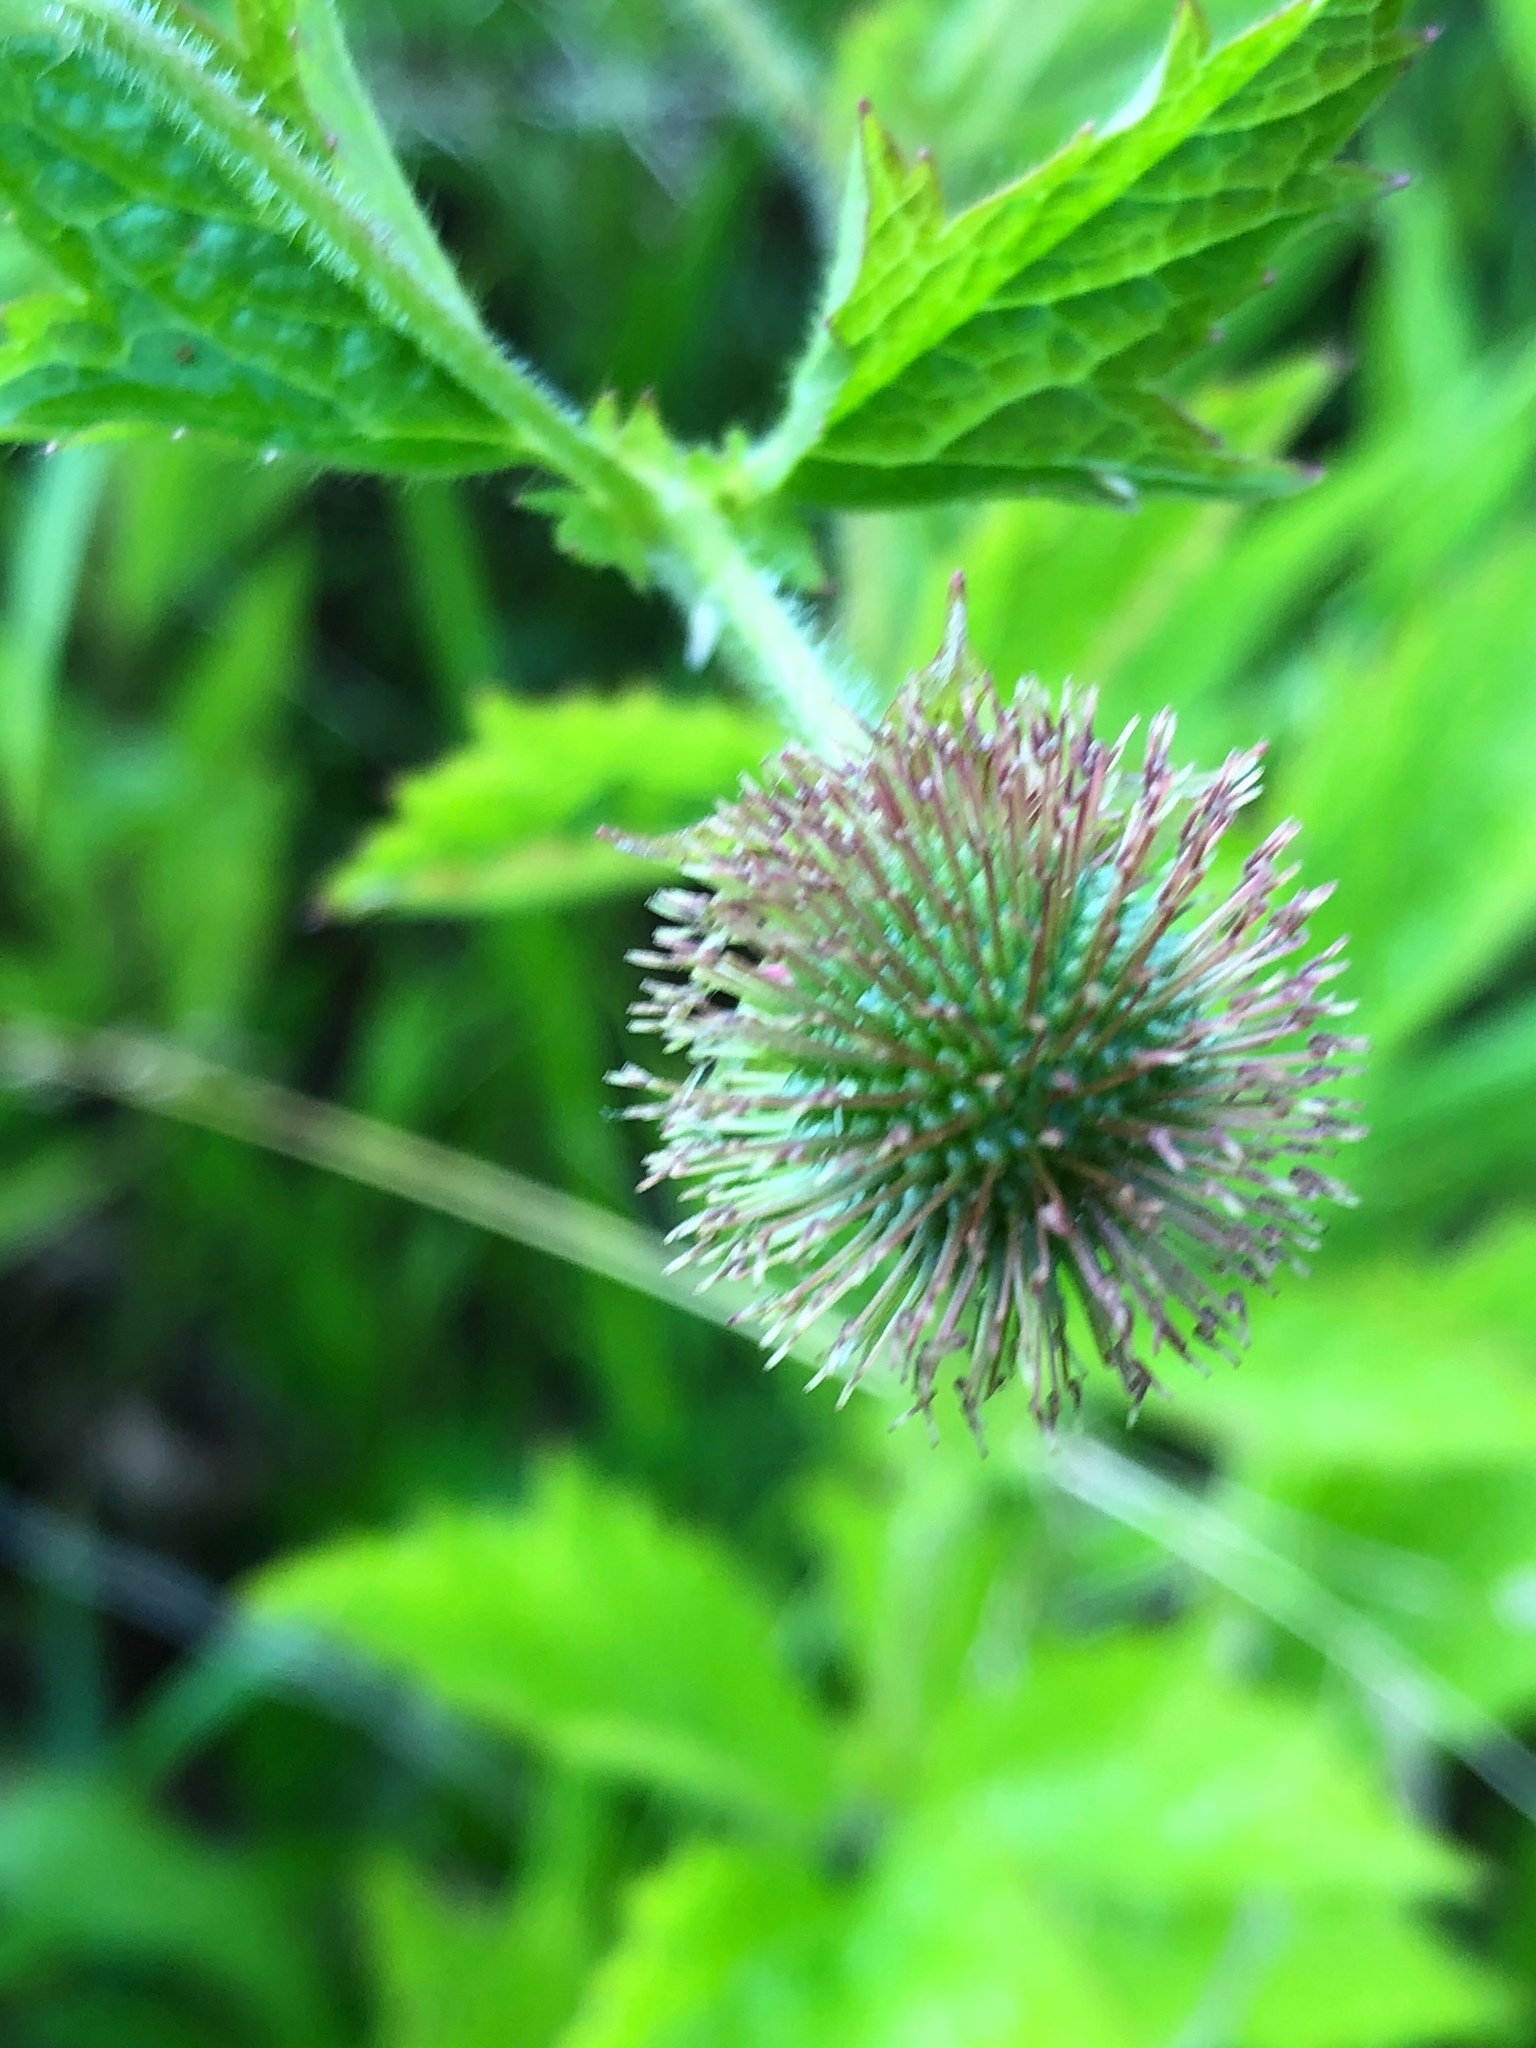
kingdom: Plantae
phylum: Tracheophyta
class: Magnoliopsida
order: Rosales
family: Rosaceae
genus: Geum
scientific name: Geum laciniatum
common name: Rough avens
